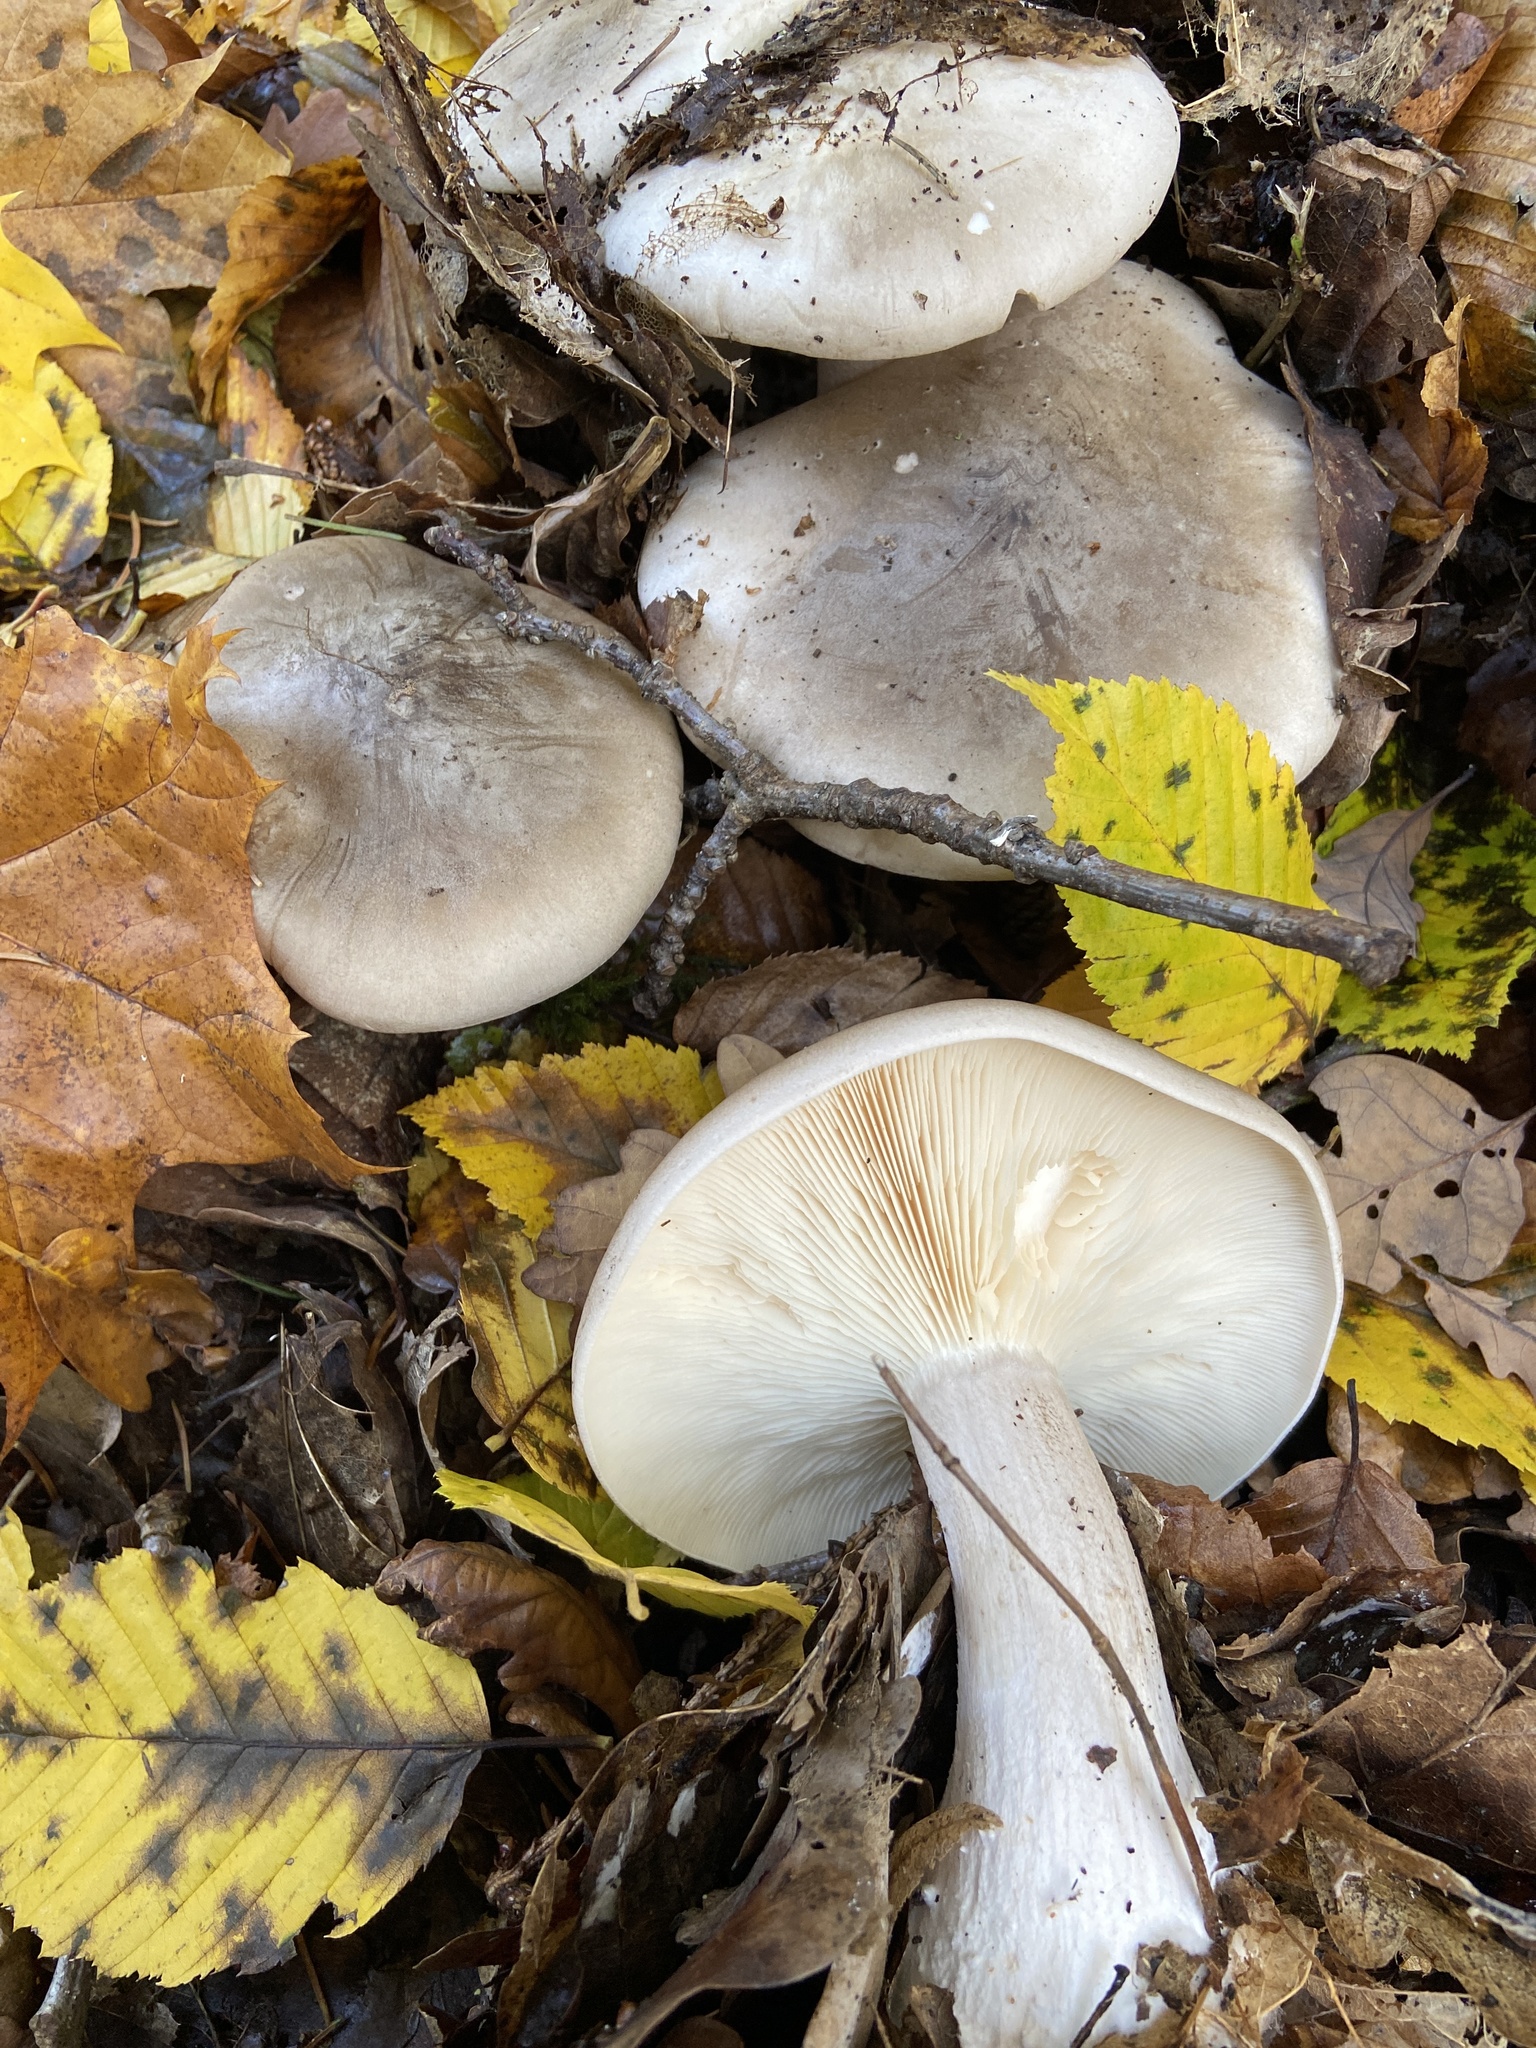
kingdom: Fungi
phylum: Basidiomycota
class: Agaricomycetes
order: Agaricales
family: Tricholomataceae
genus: Clitocybe
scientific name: Clitocybe nebularis
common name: Clouded agaric
